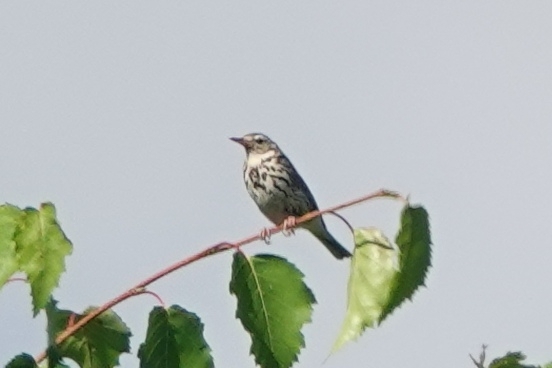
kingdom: Animalia
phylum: Chordata
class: Aves
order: Passeriformes
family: Motacillidae
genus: Anthus
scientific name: Anthus hodgsoni
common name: Olive-backed pipit
